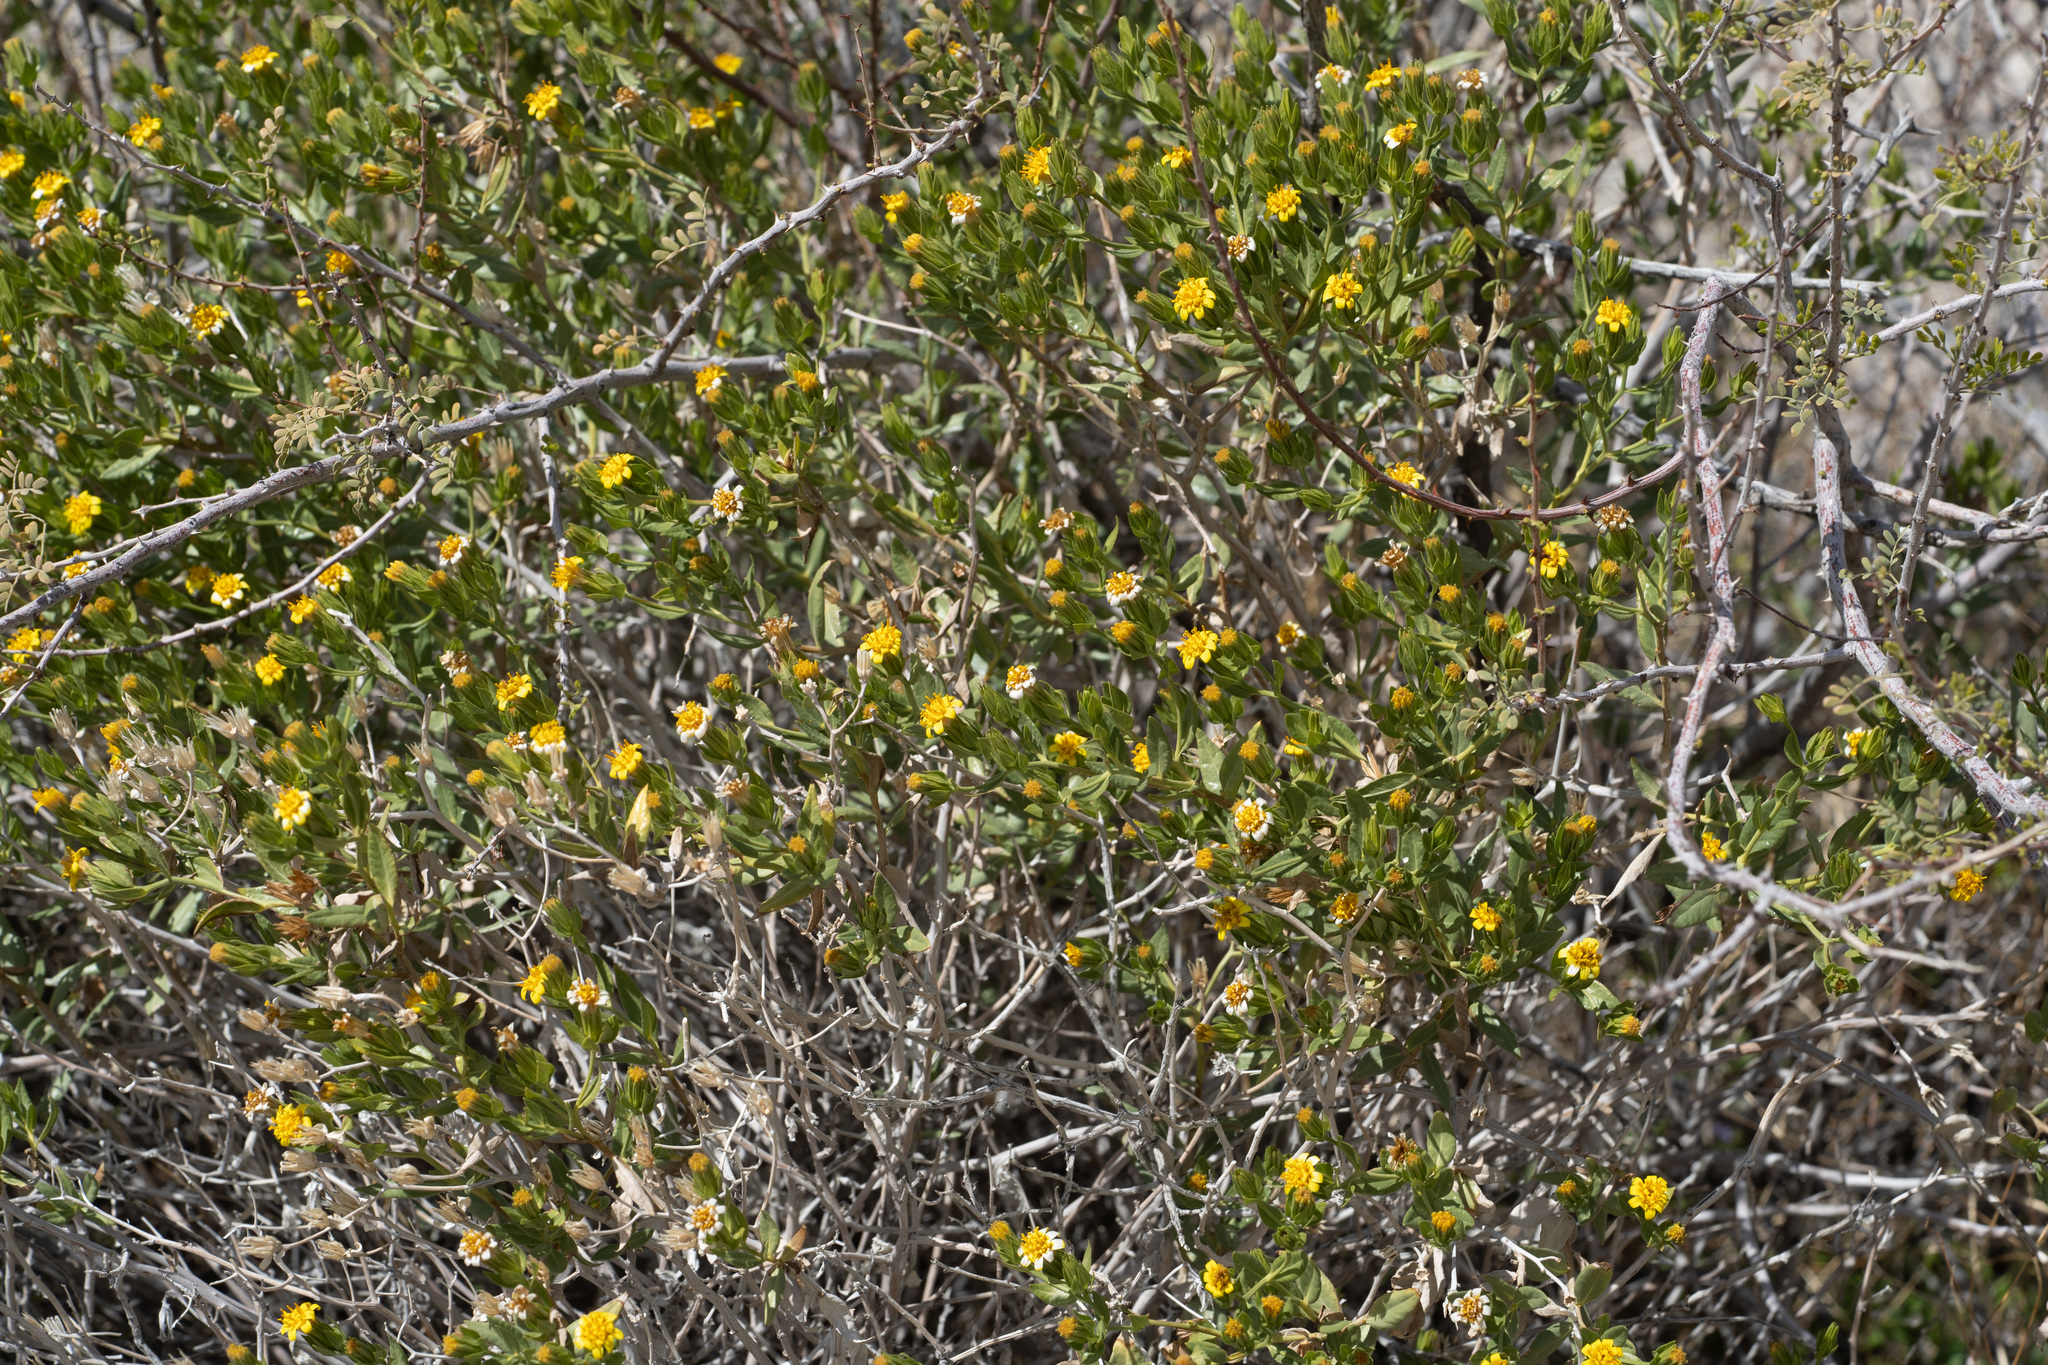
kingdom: Plantae
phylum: Tracheophyta
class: Magnoliopsida
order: Asterales
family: Asteraceae
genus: Trixis
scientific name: Trixis californica
